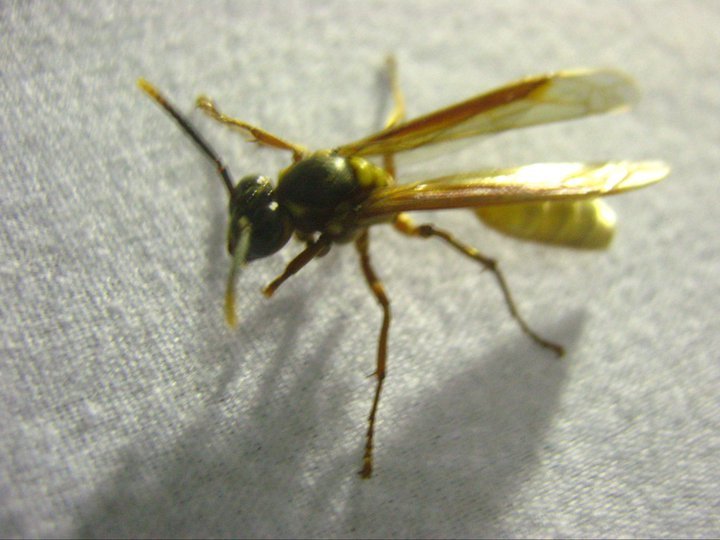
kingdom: Animalia
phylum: Arthropoda
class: Insecta
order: Hymenoptera
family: Vespidae
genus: Apoica
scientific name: Apoica pallens
